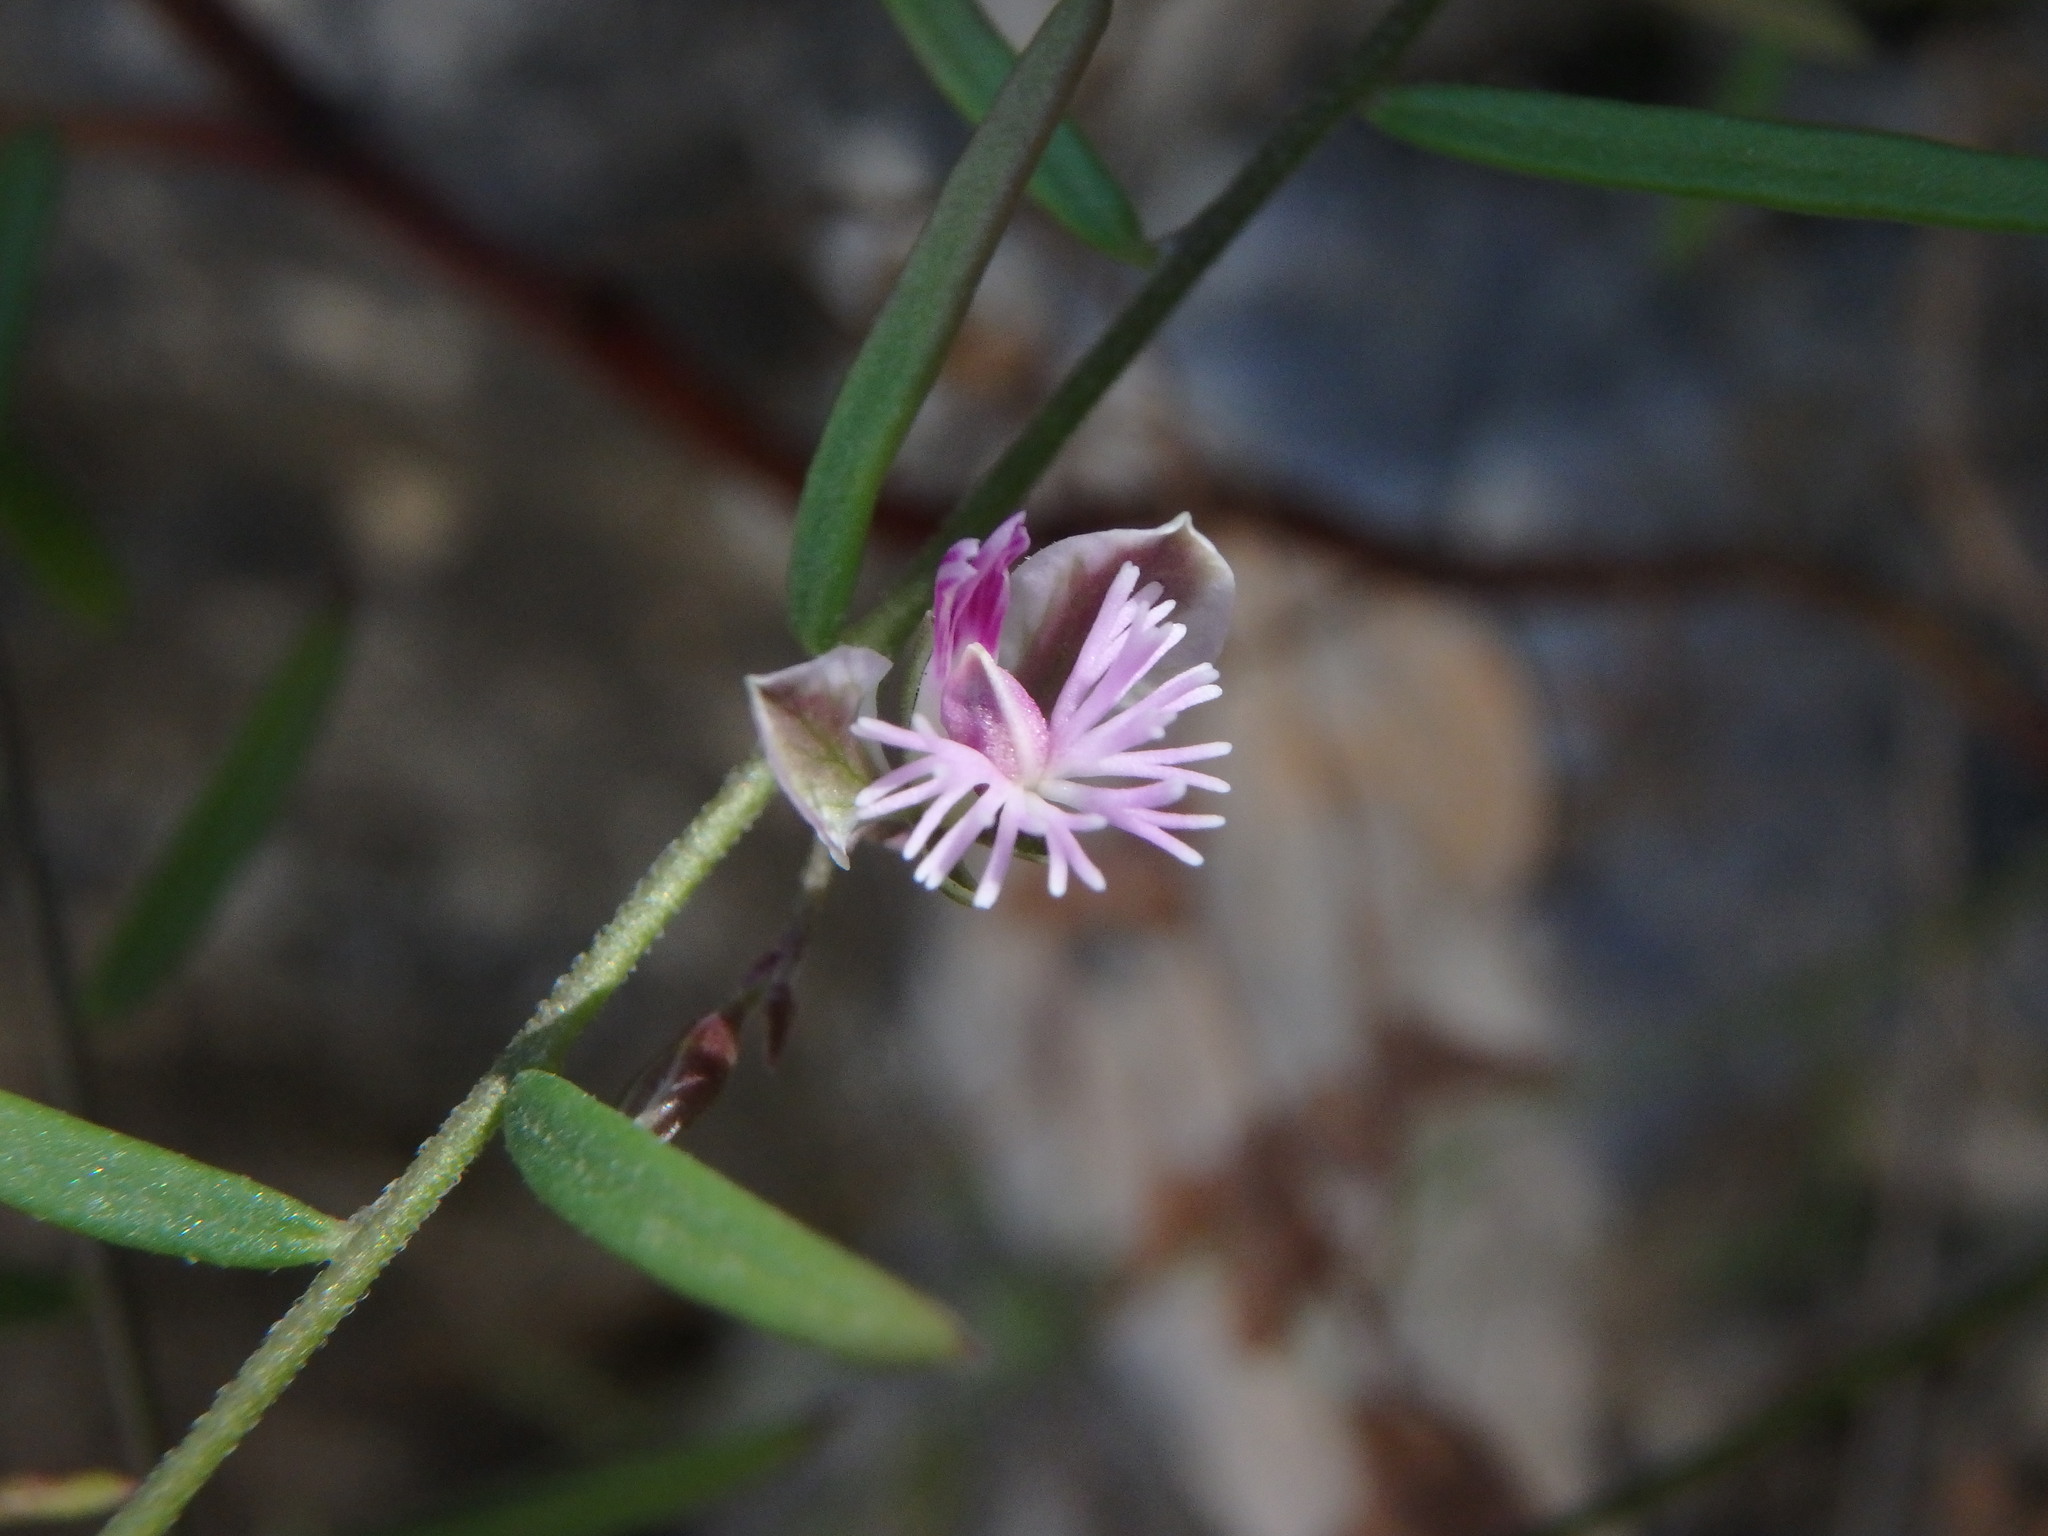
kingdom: Plantae
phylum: Tracheophyta
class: Magnoliopsida
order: Fabales
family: Polygalaceae
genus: Polygala
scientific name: Polygala rupestris
